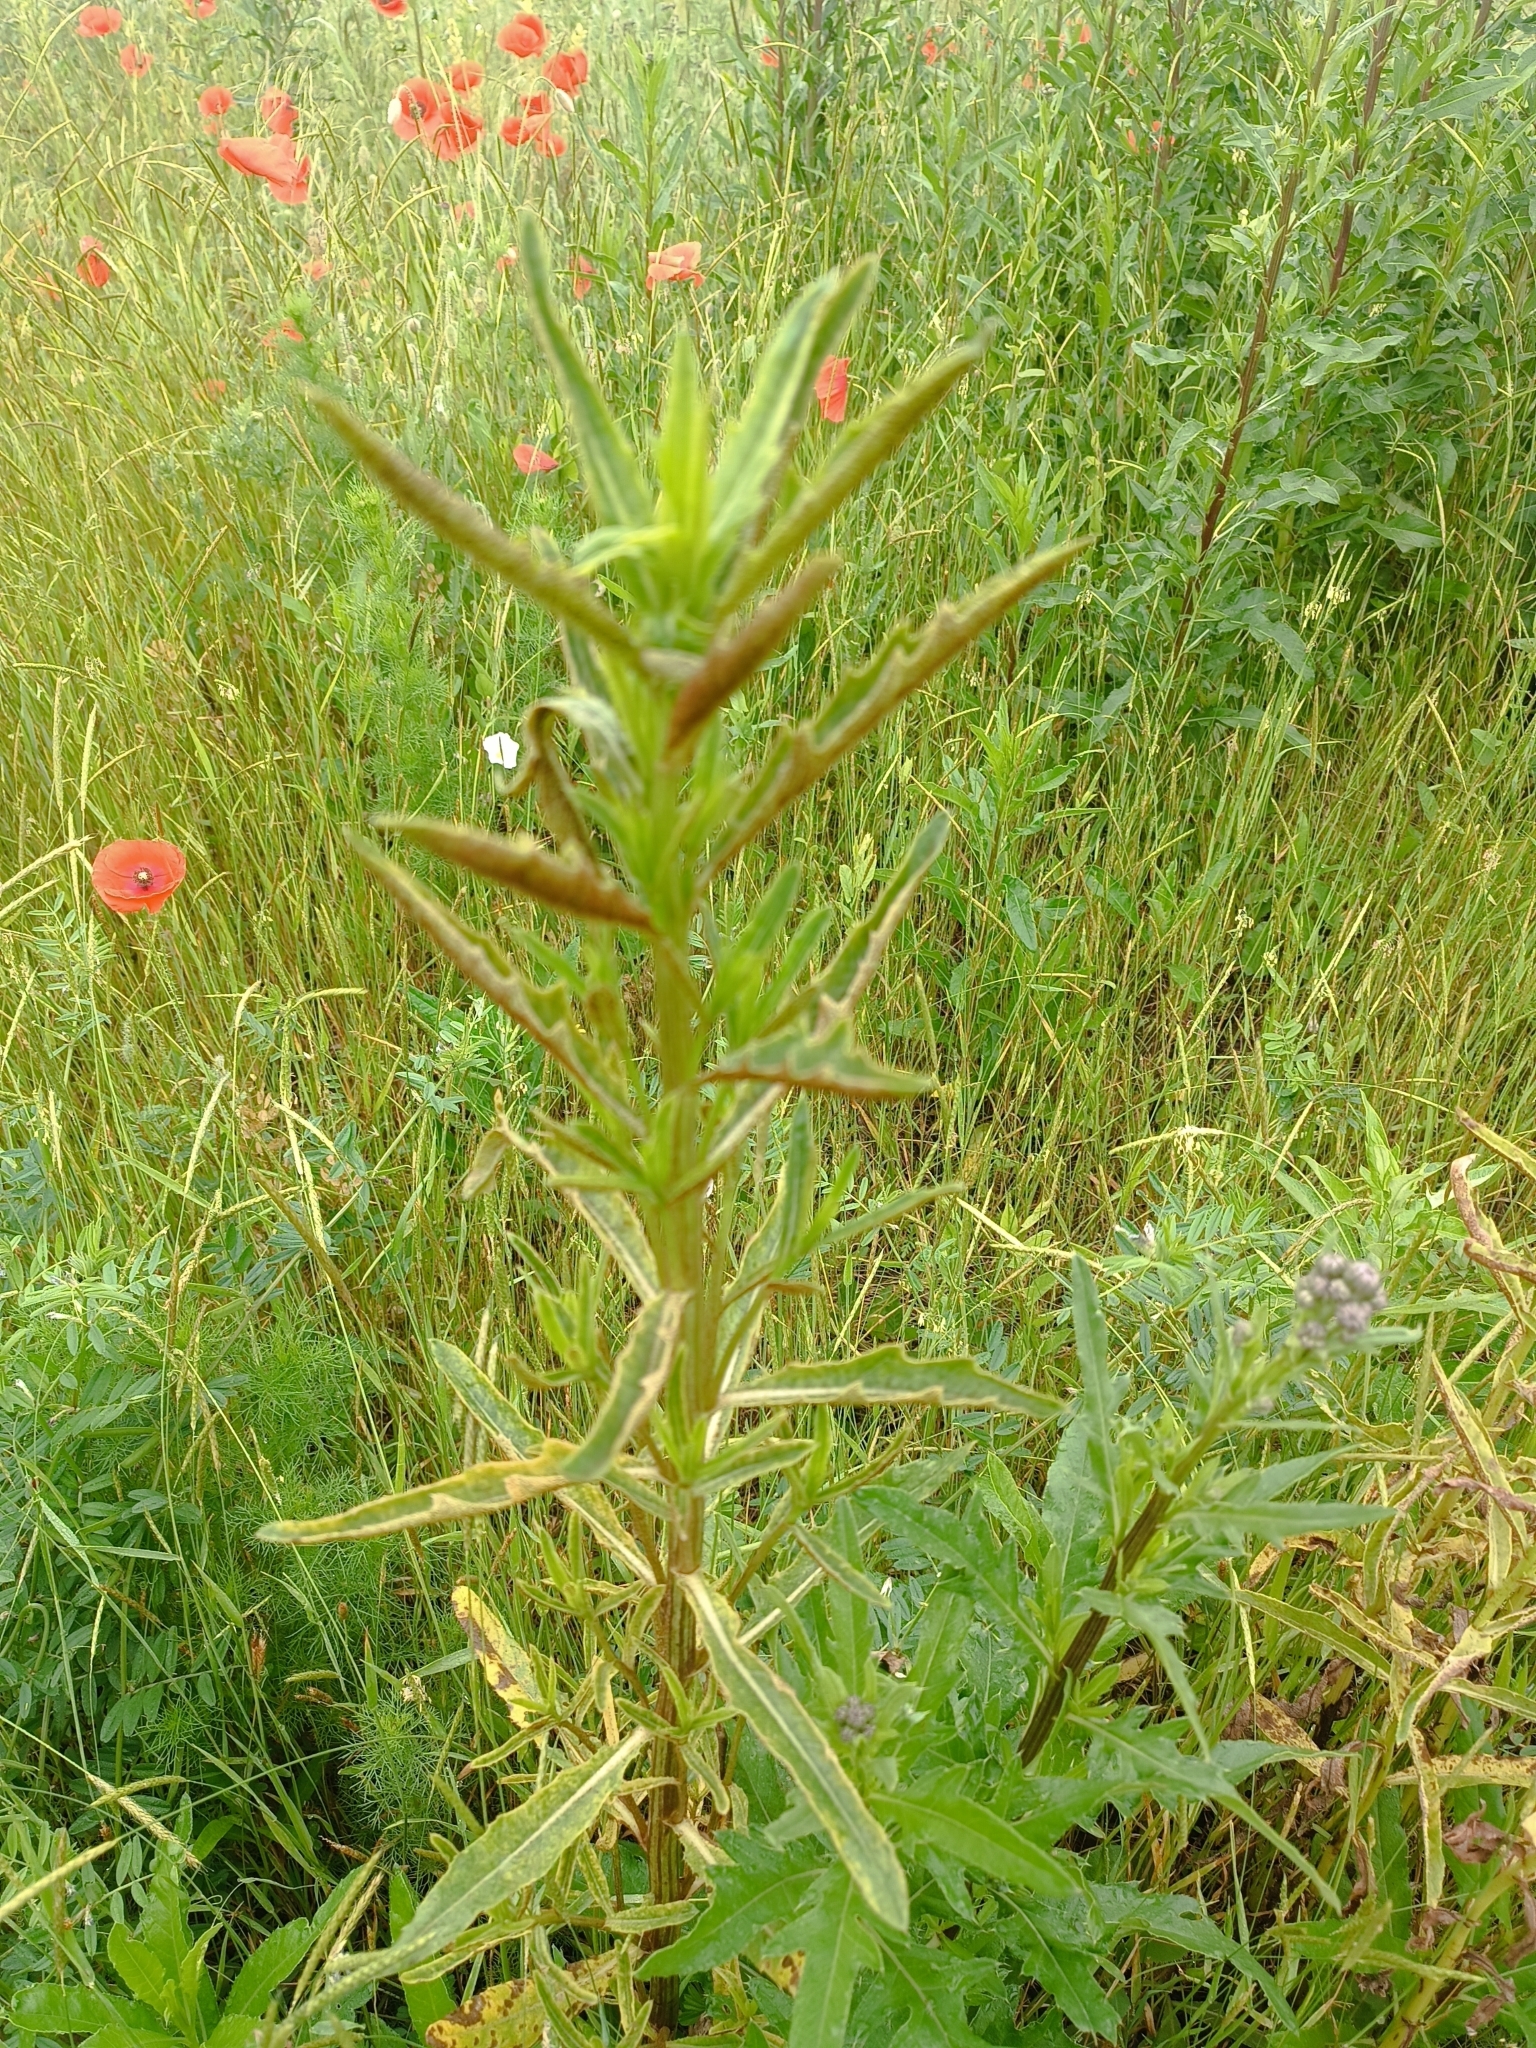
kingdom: Fungi
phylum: Basidiomycota
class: Pucciniomycetes
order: Pucciniales
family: Pucciniaceae
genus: Puccinia
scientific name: Puccinia suaveolens
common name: Thistle rust
